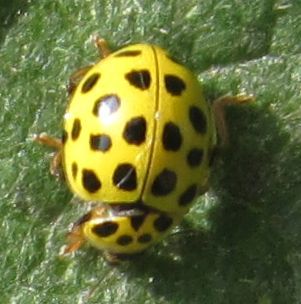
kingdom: Animalia
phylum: Arthropoda
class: Insecta
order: Coleoptera
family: Coccinellidae
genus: Psyllobora
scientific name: Psyllobora vigintiduopunctata
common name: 22-spot ladybird
